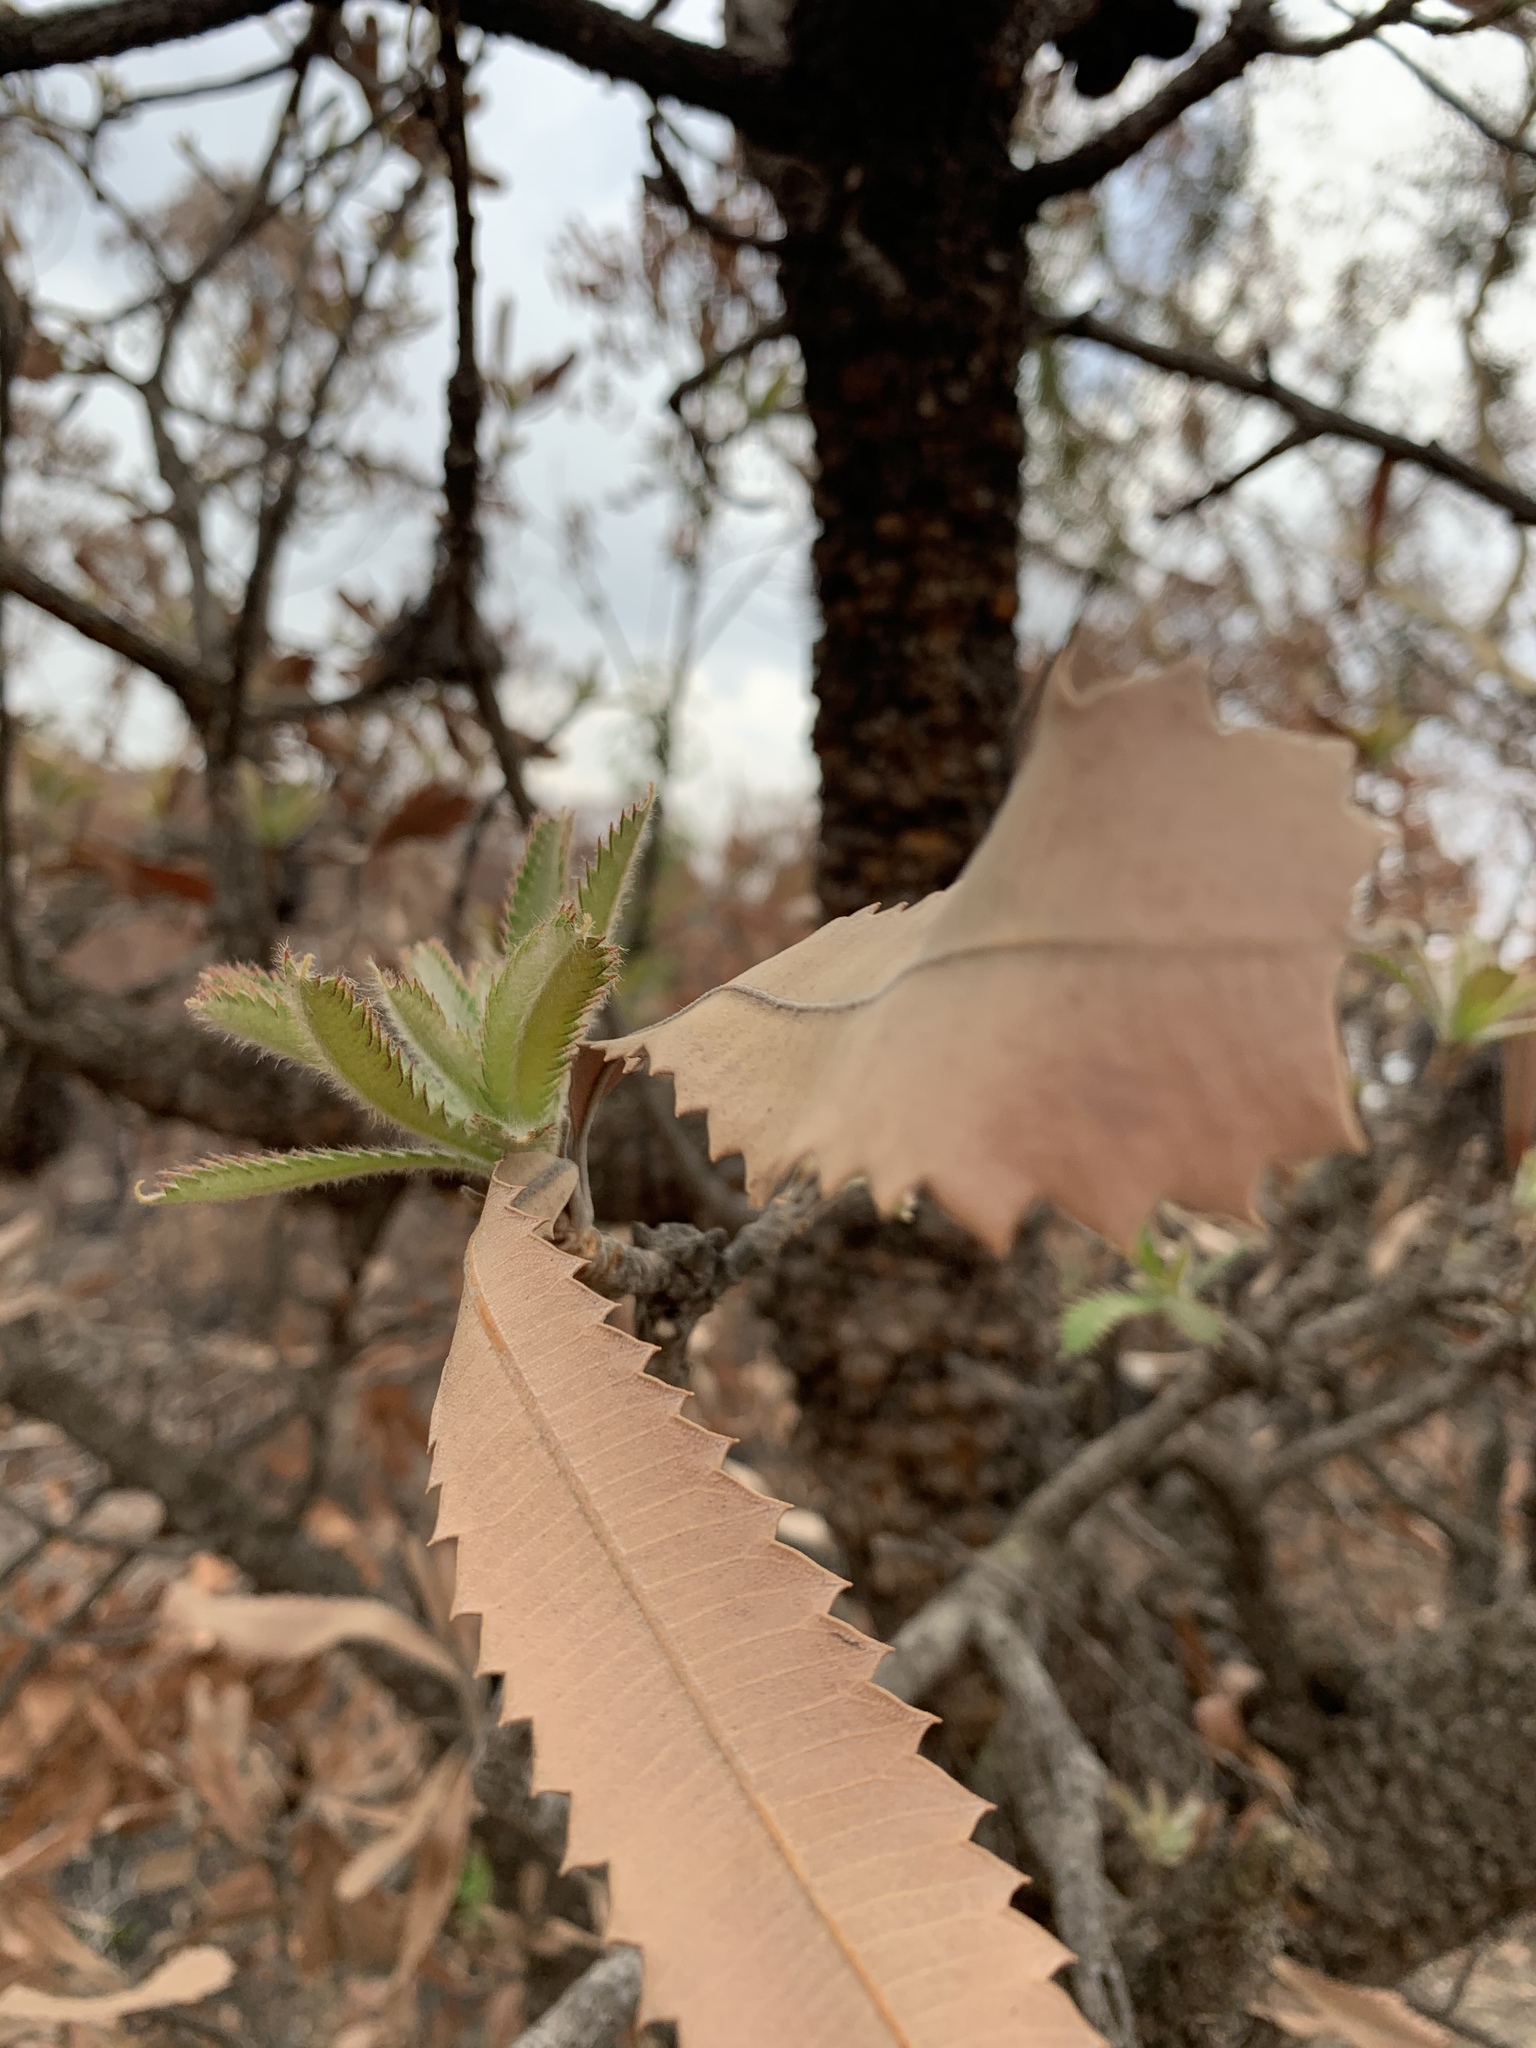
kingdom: Plantae
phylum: Tracheophyta
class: Magnoliopsida
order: Proteales
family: Proteaceae
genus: Banksia
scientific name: Banksia serrata
